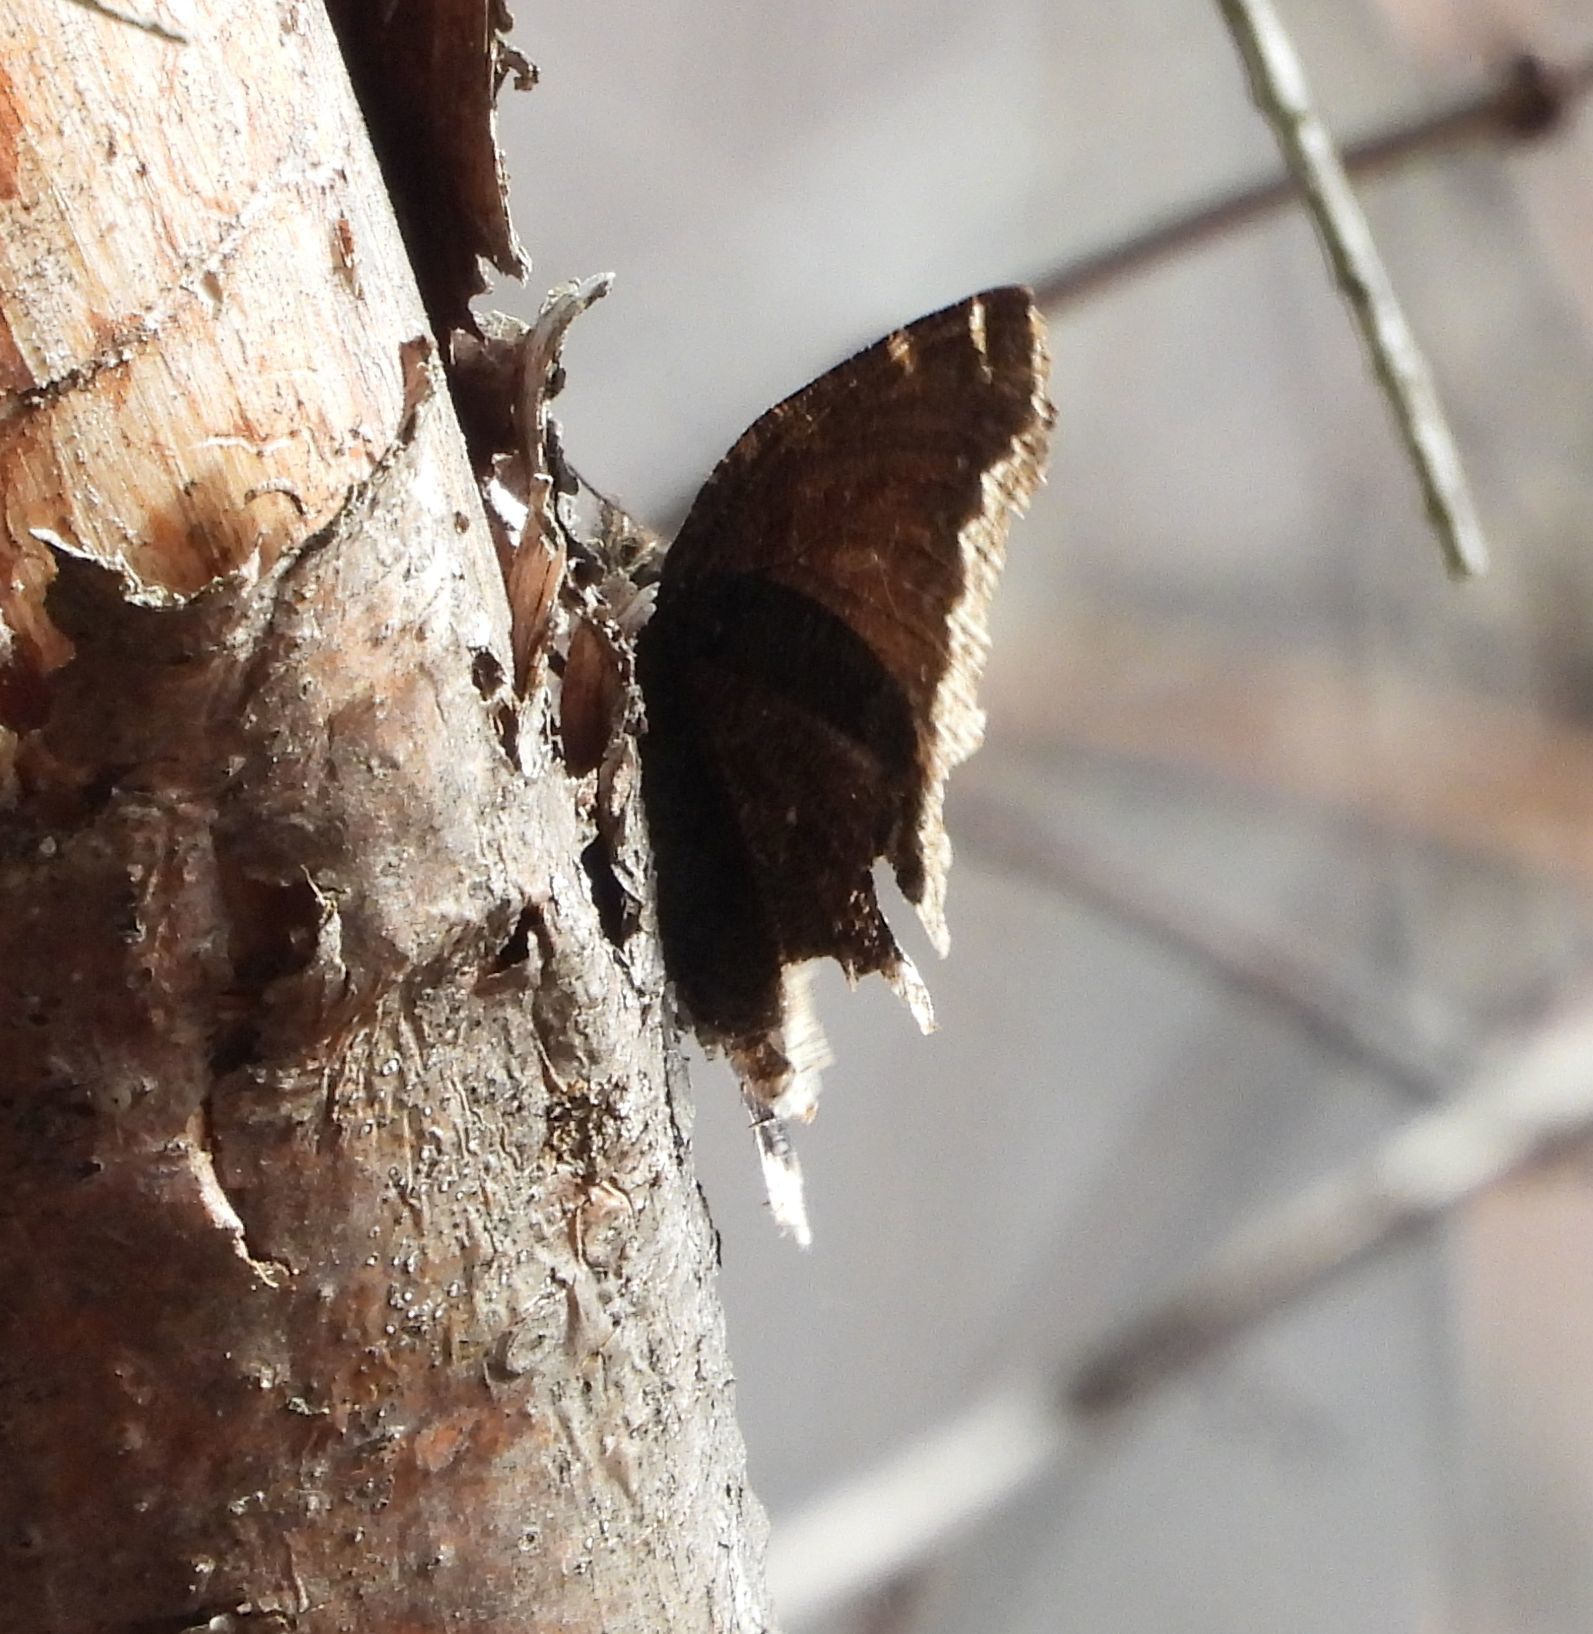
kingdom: Animalia
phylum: Arthropoda
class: Insecta
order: Lepidoptera
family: Nymphalidae
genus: Nymphalis
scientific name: Nymphalis antiopa
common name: Camberwell beauty
